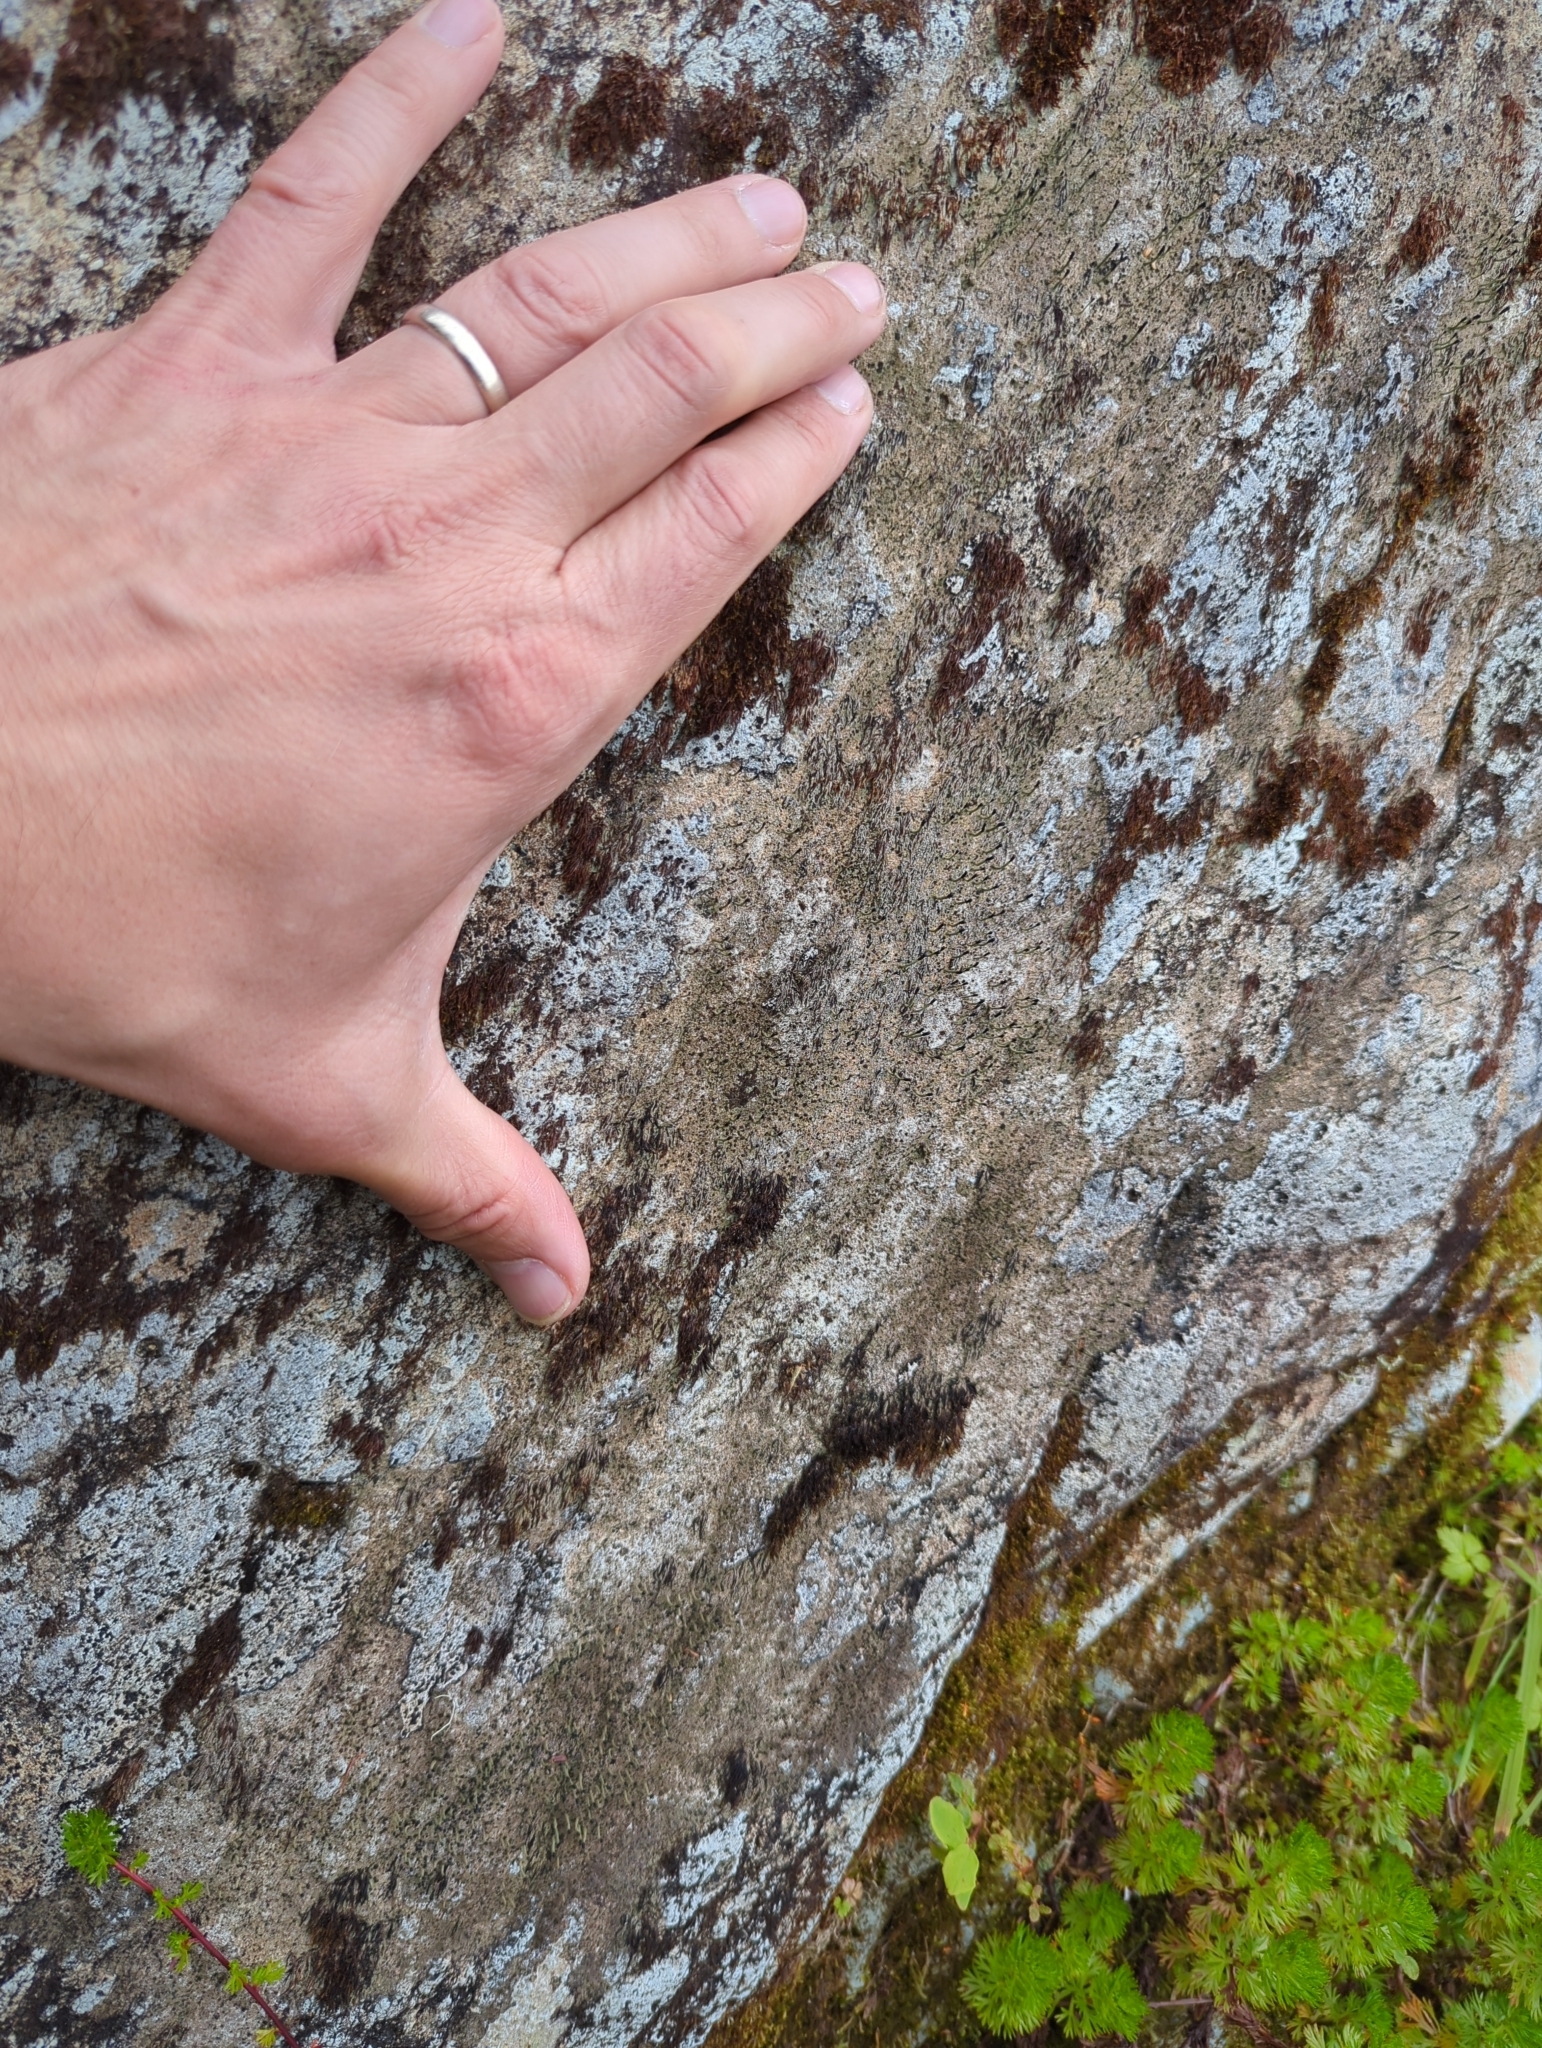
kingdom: Fungi
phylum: Ascomycota
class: Lecanoromycetes
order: Lecanorales
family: Cladoniaceae
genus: Pilophorus
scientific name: Pilophorus clavatus
